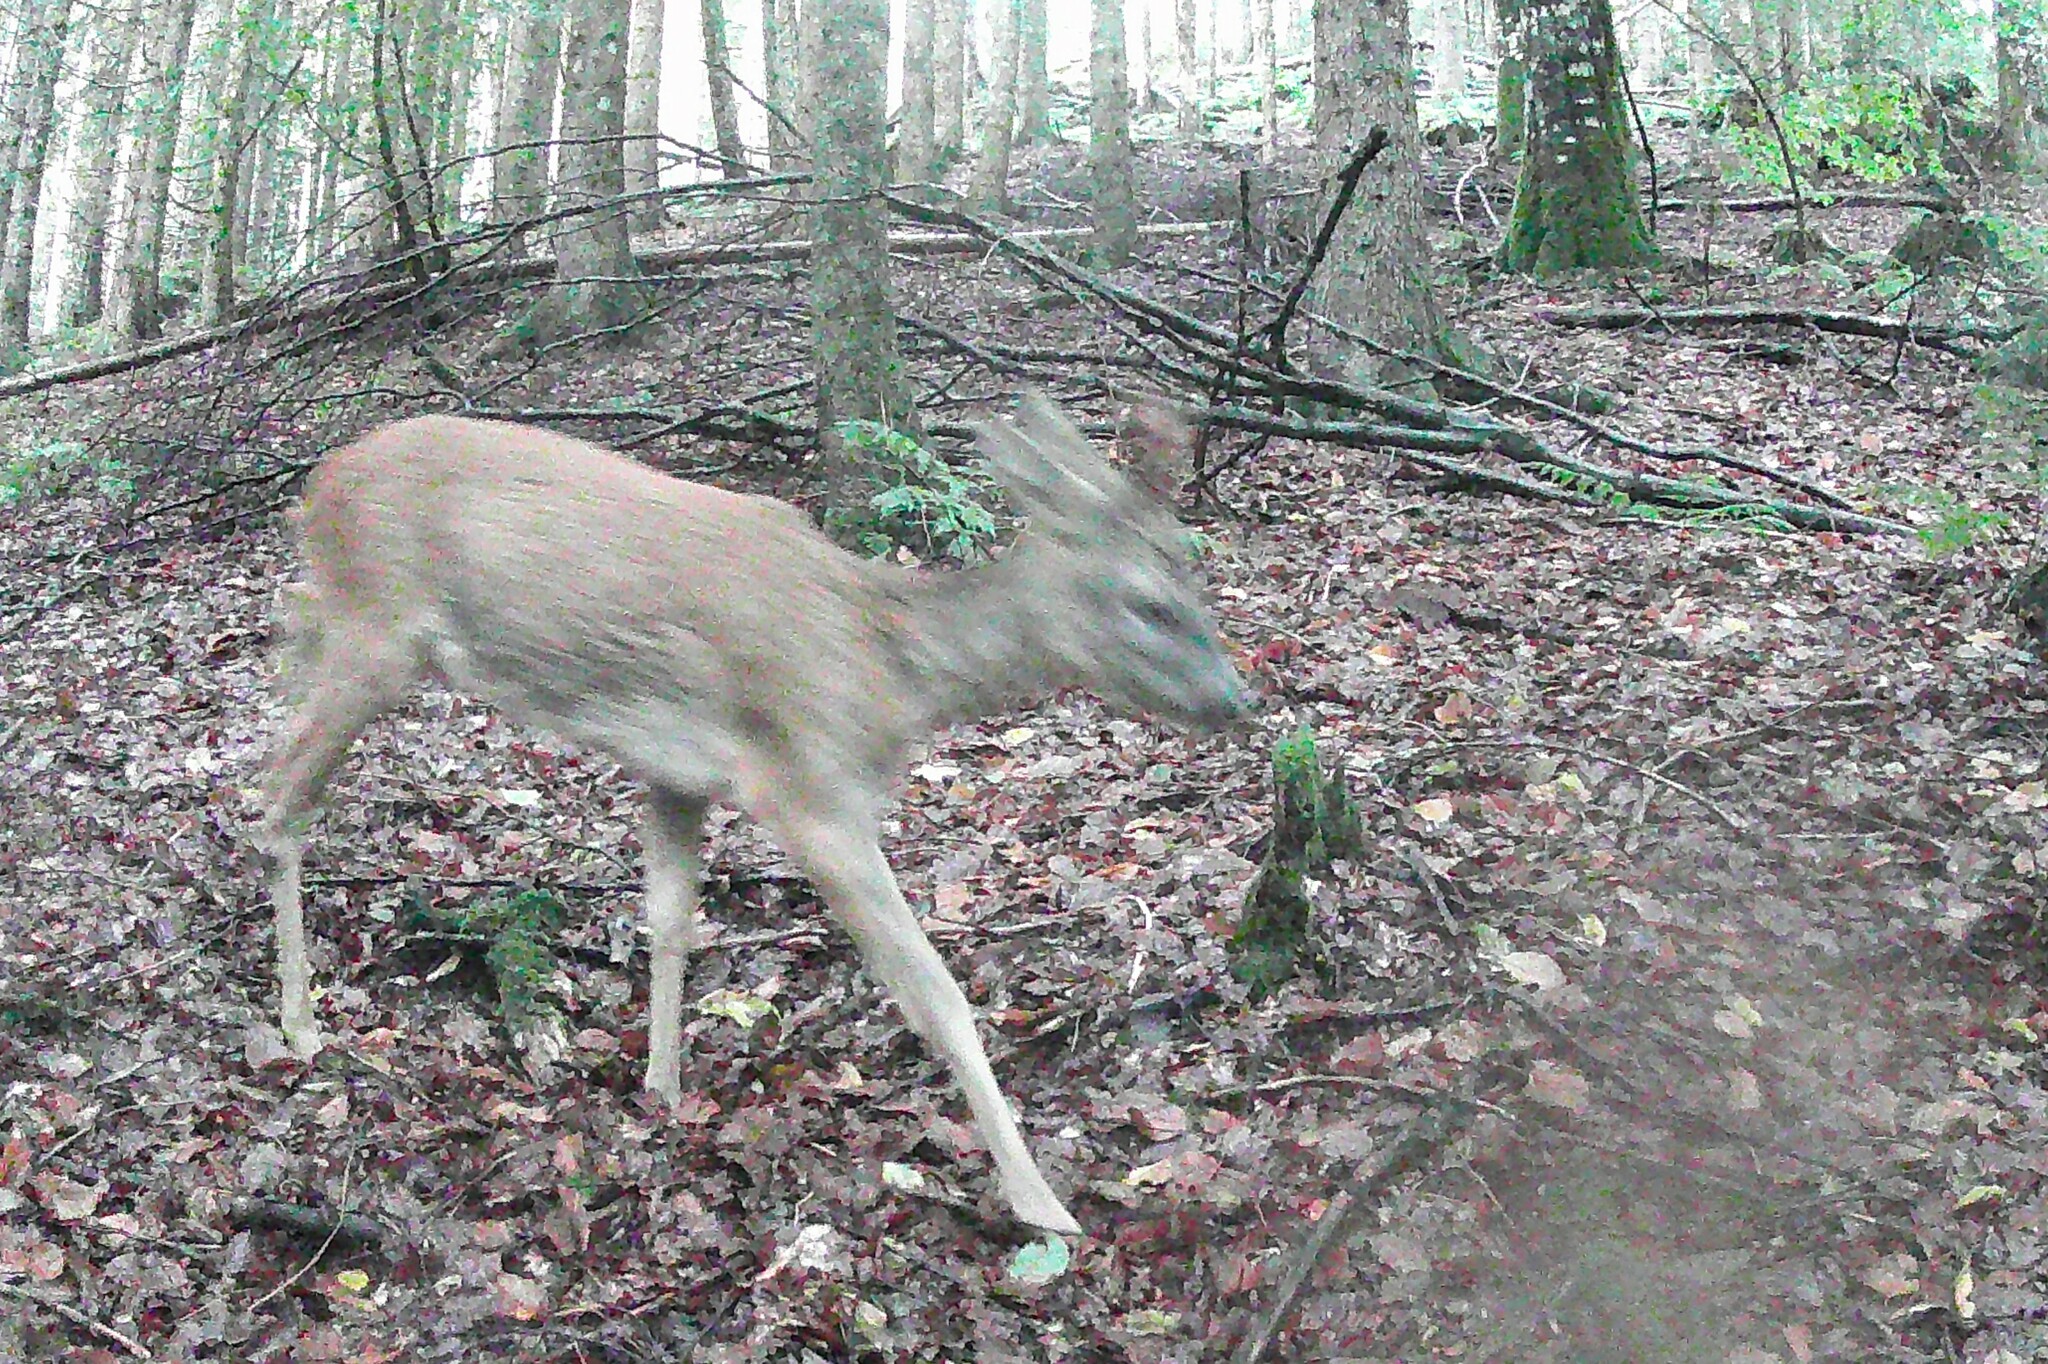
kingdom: Animalia
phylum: Chordata
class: Mammalia
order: Artiodactyla
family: Cervidae
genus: Capreolus
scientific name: Capreolus capreolus
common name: Western roe deer
